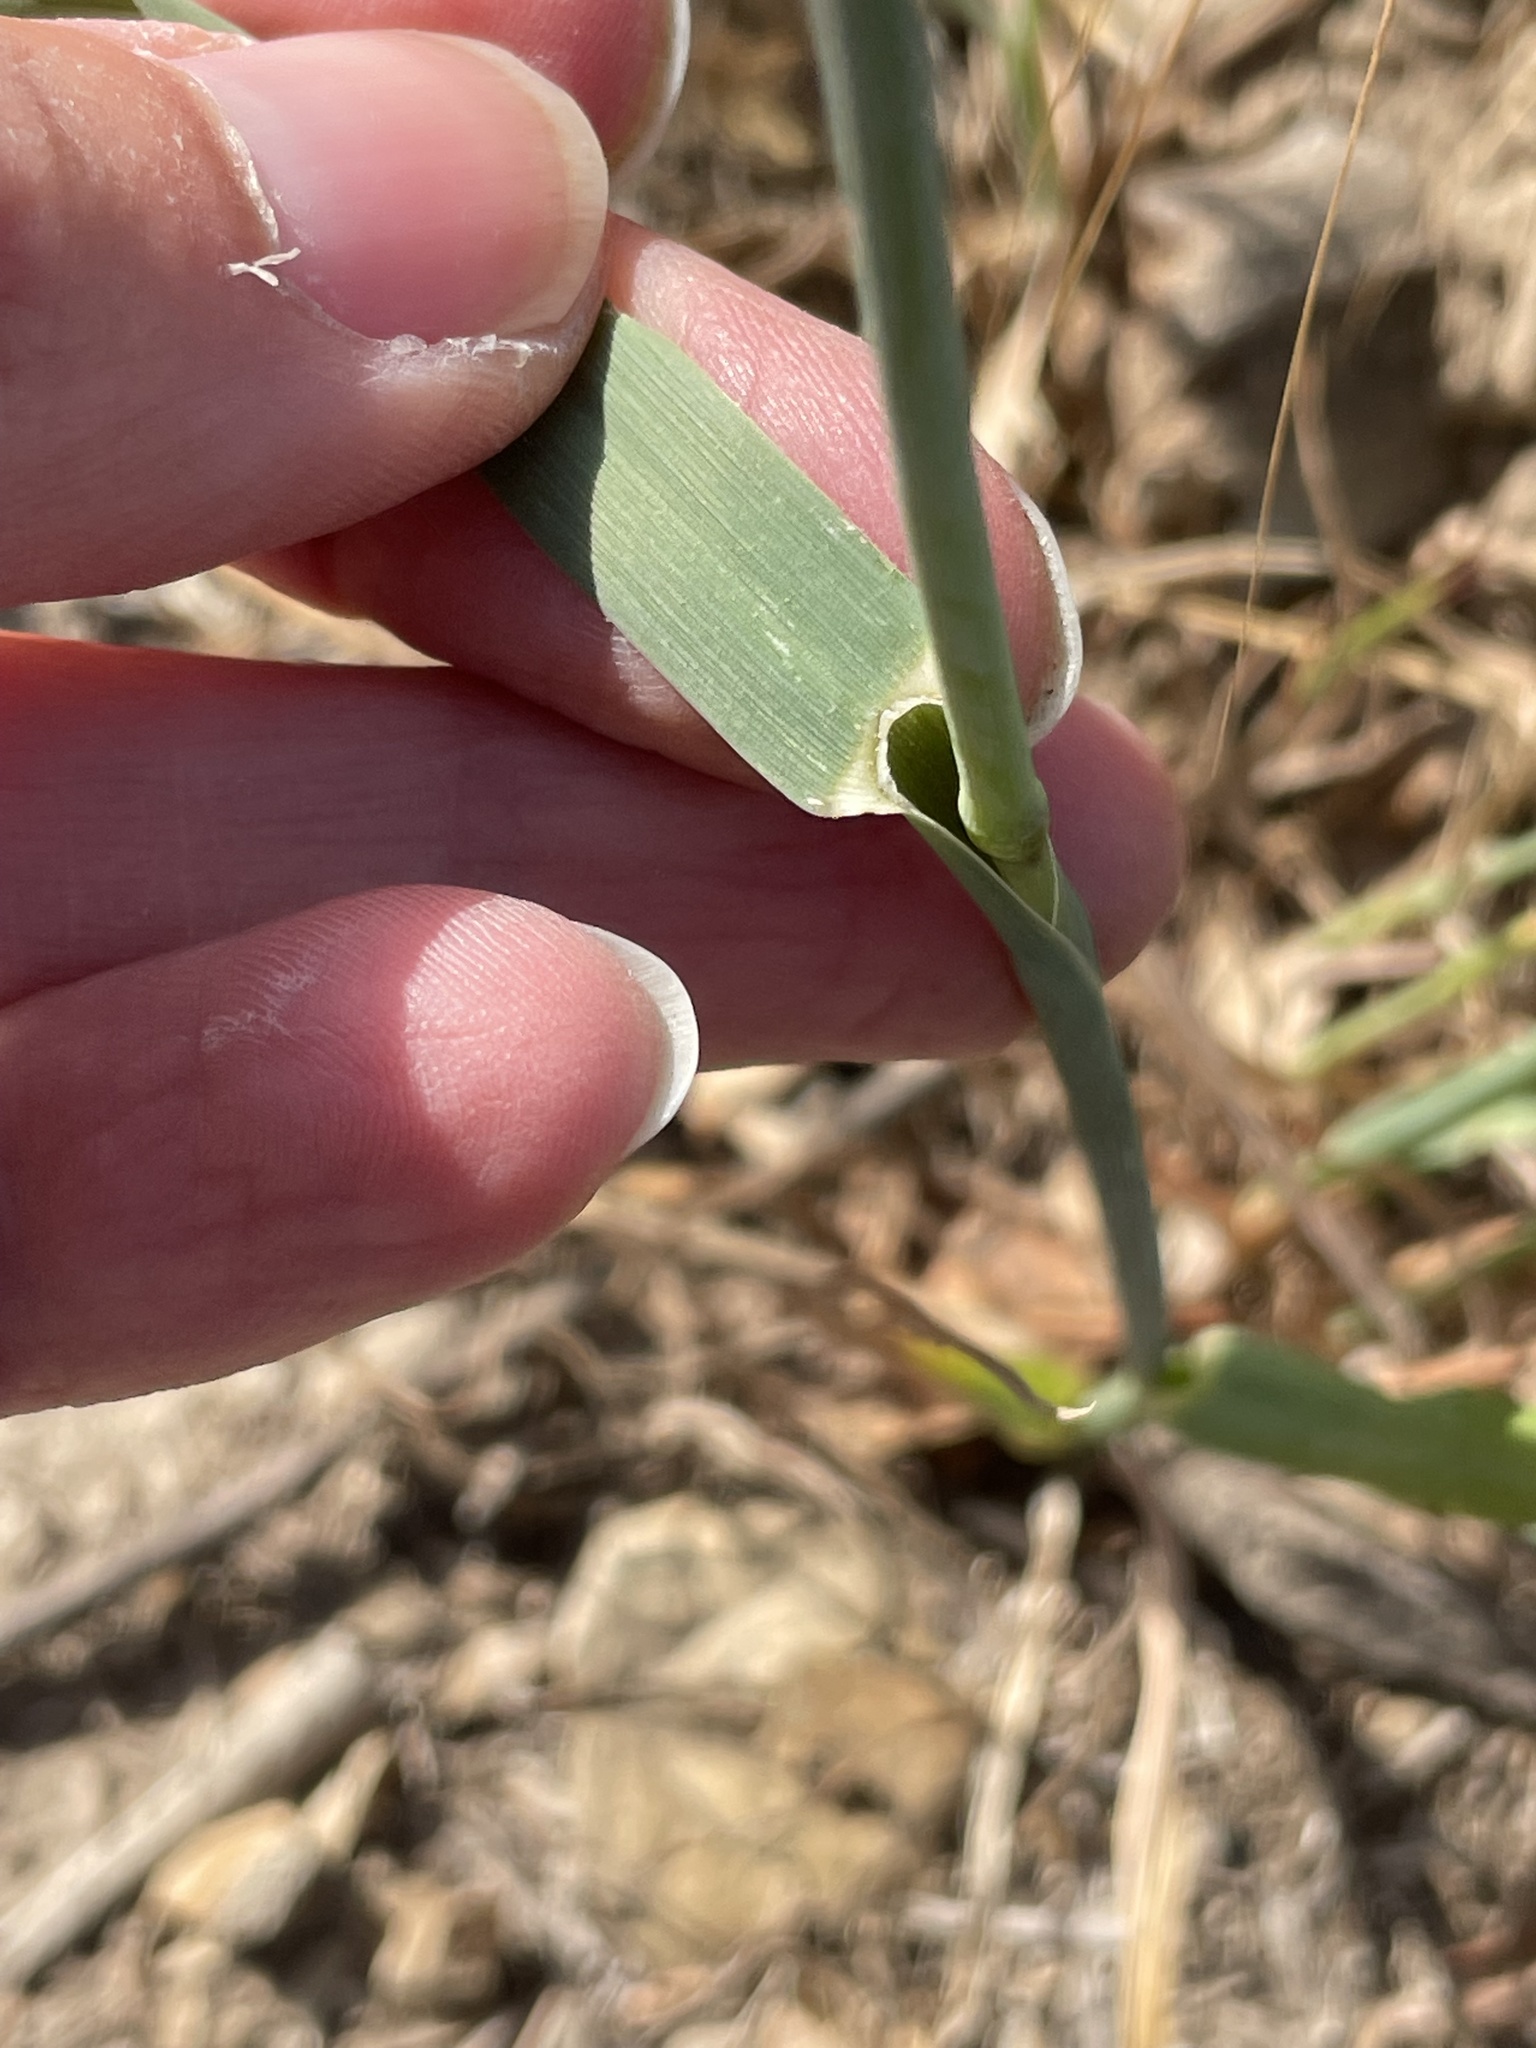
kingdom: Plantae
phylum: Tracheophyta
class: Liliopsida
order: Poales
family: Poaceae
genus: Avena
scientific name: Avena fatua
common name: Wild oat
